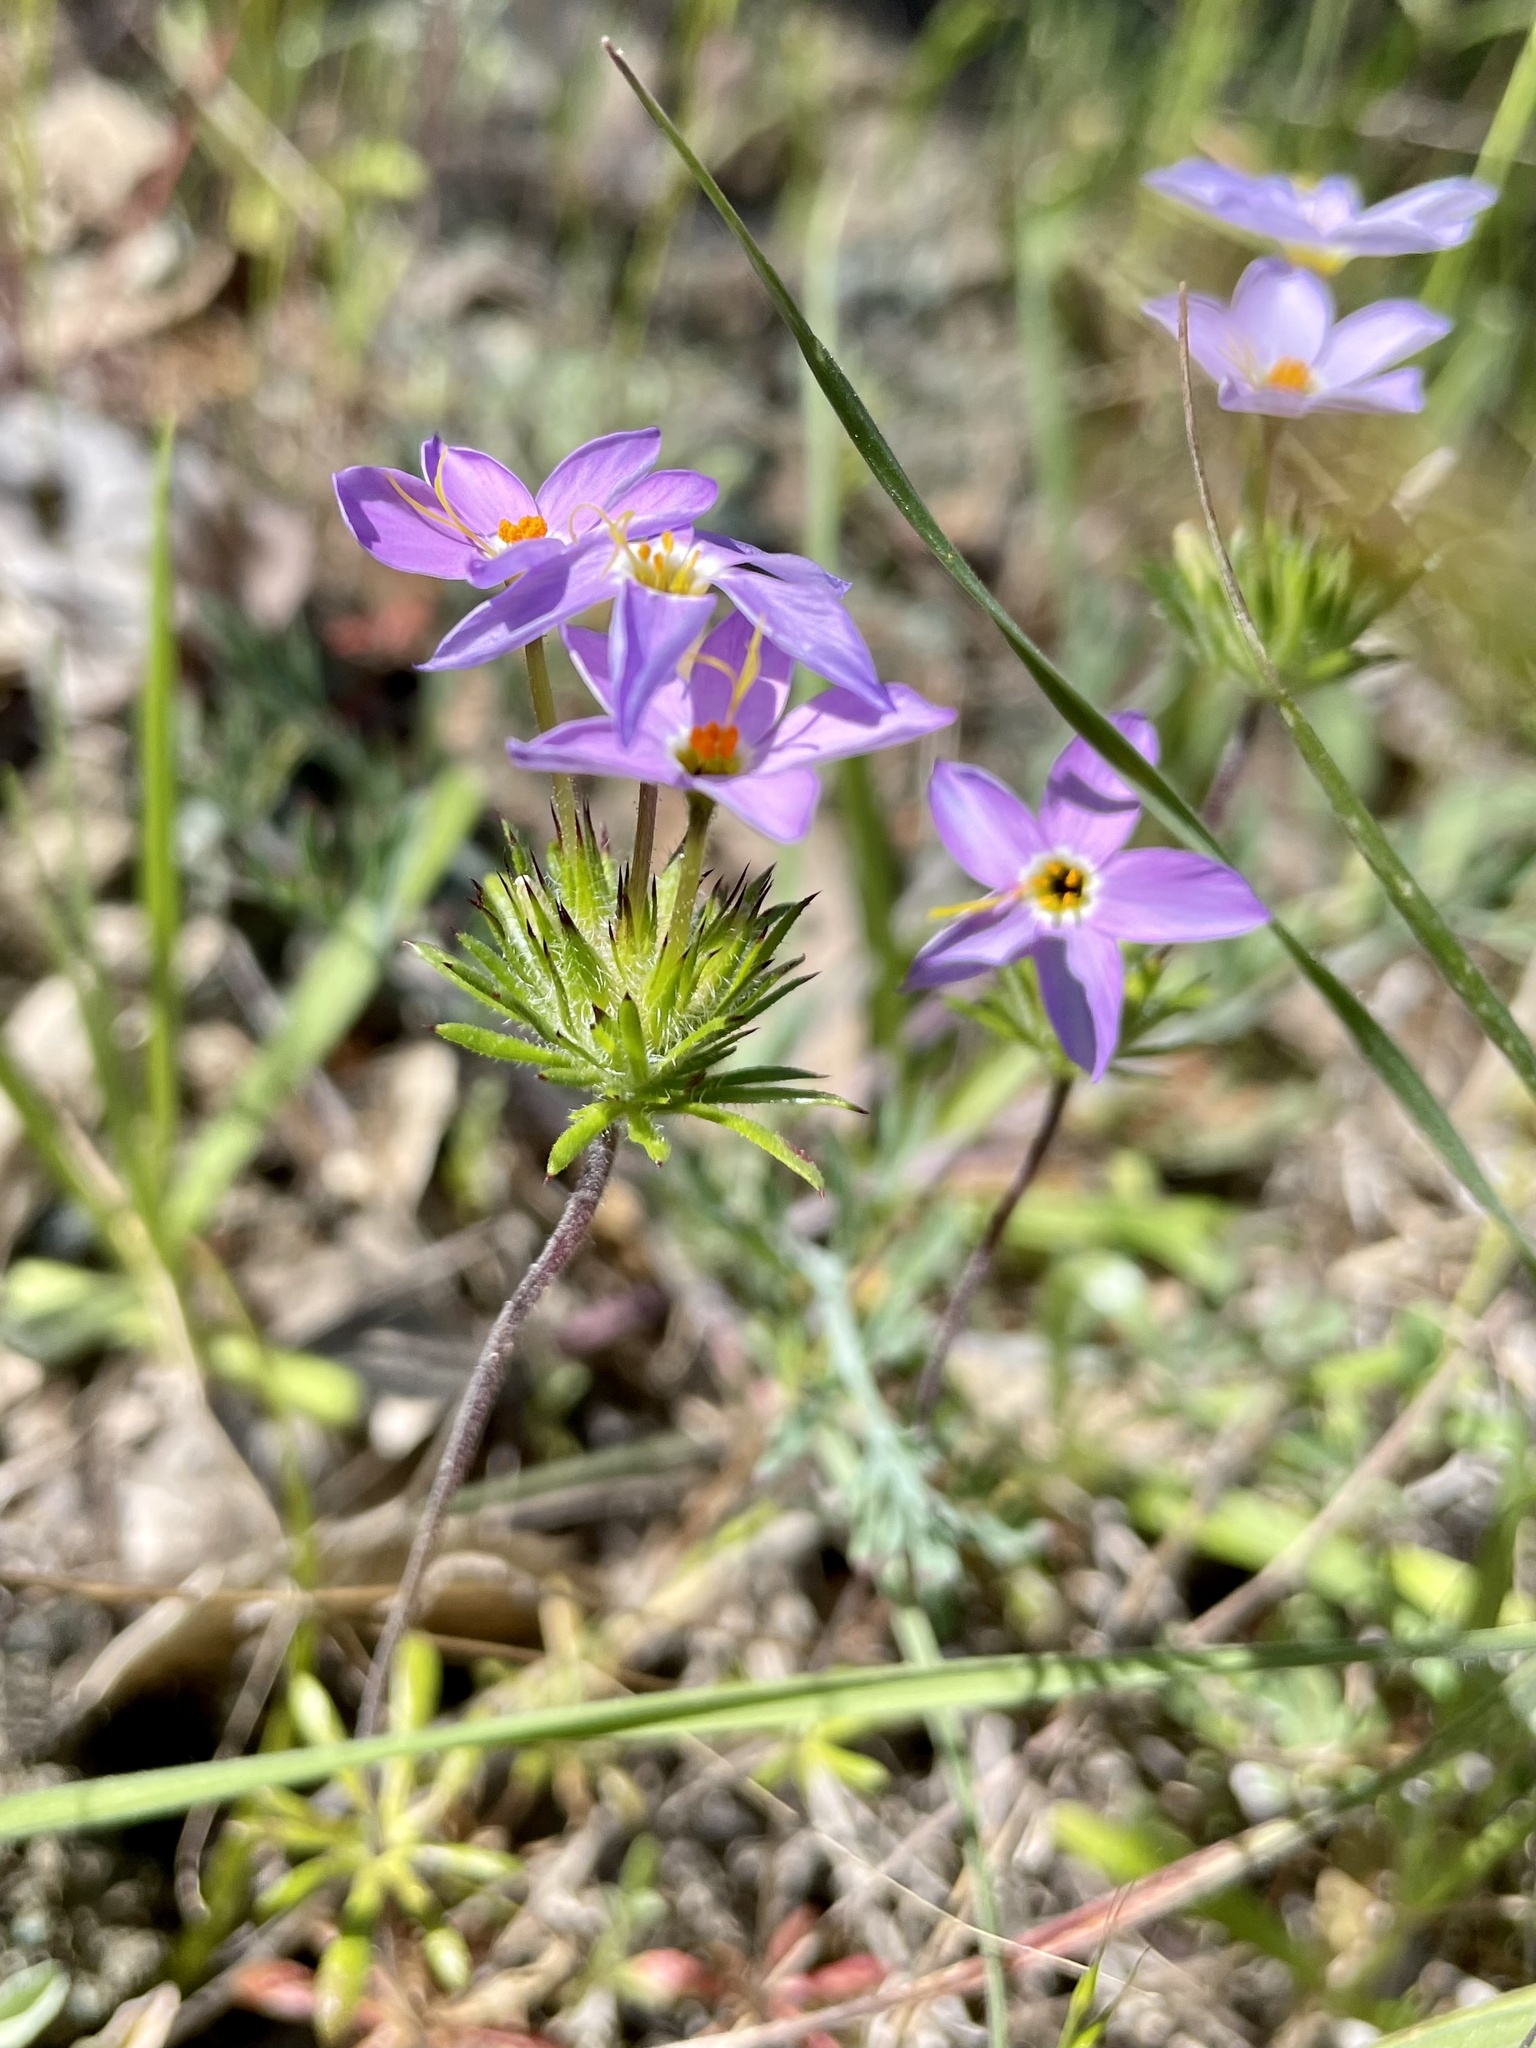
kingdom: Plantae
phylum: Tracheophyta
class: Magnoliopsida
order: Ericales
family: Polemoniaceae
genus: Leptosiphon
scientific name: Leptosiphon androsaceus
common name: False babystars
